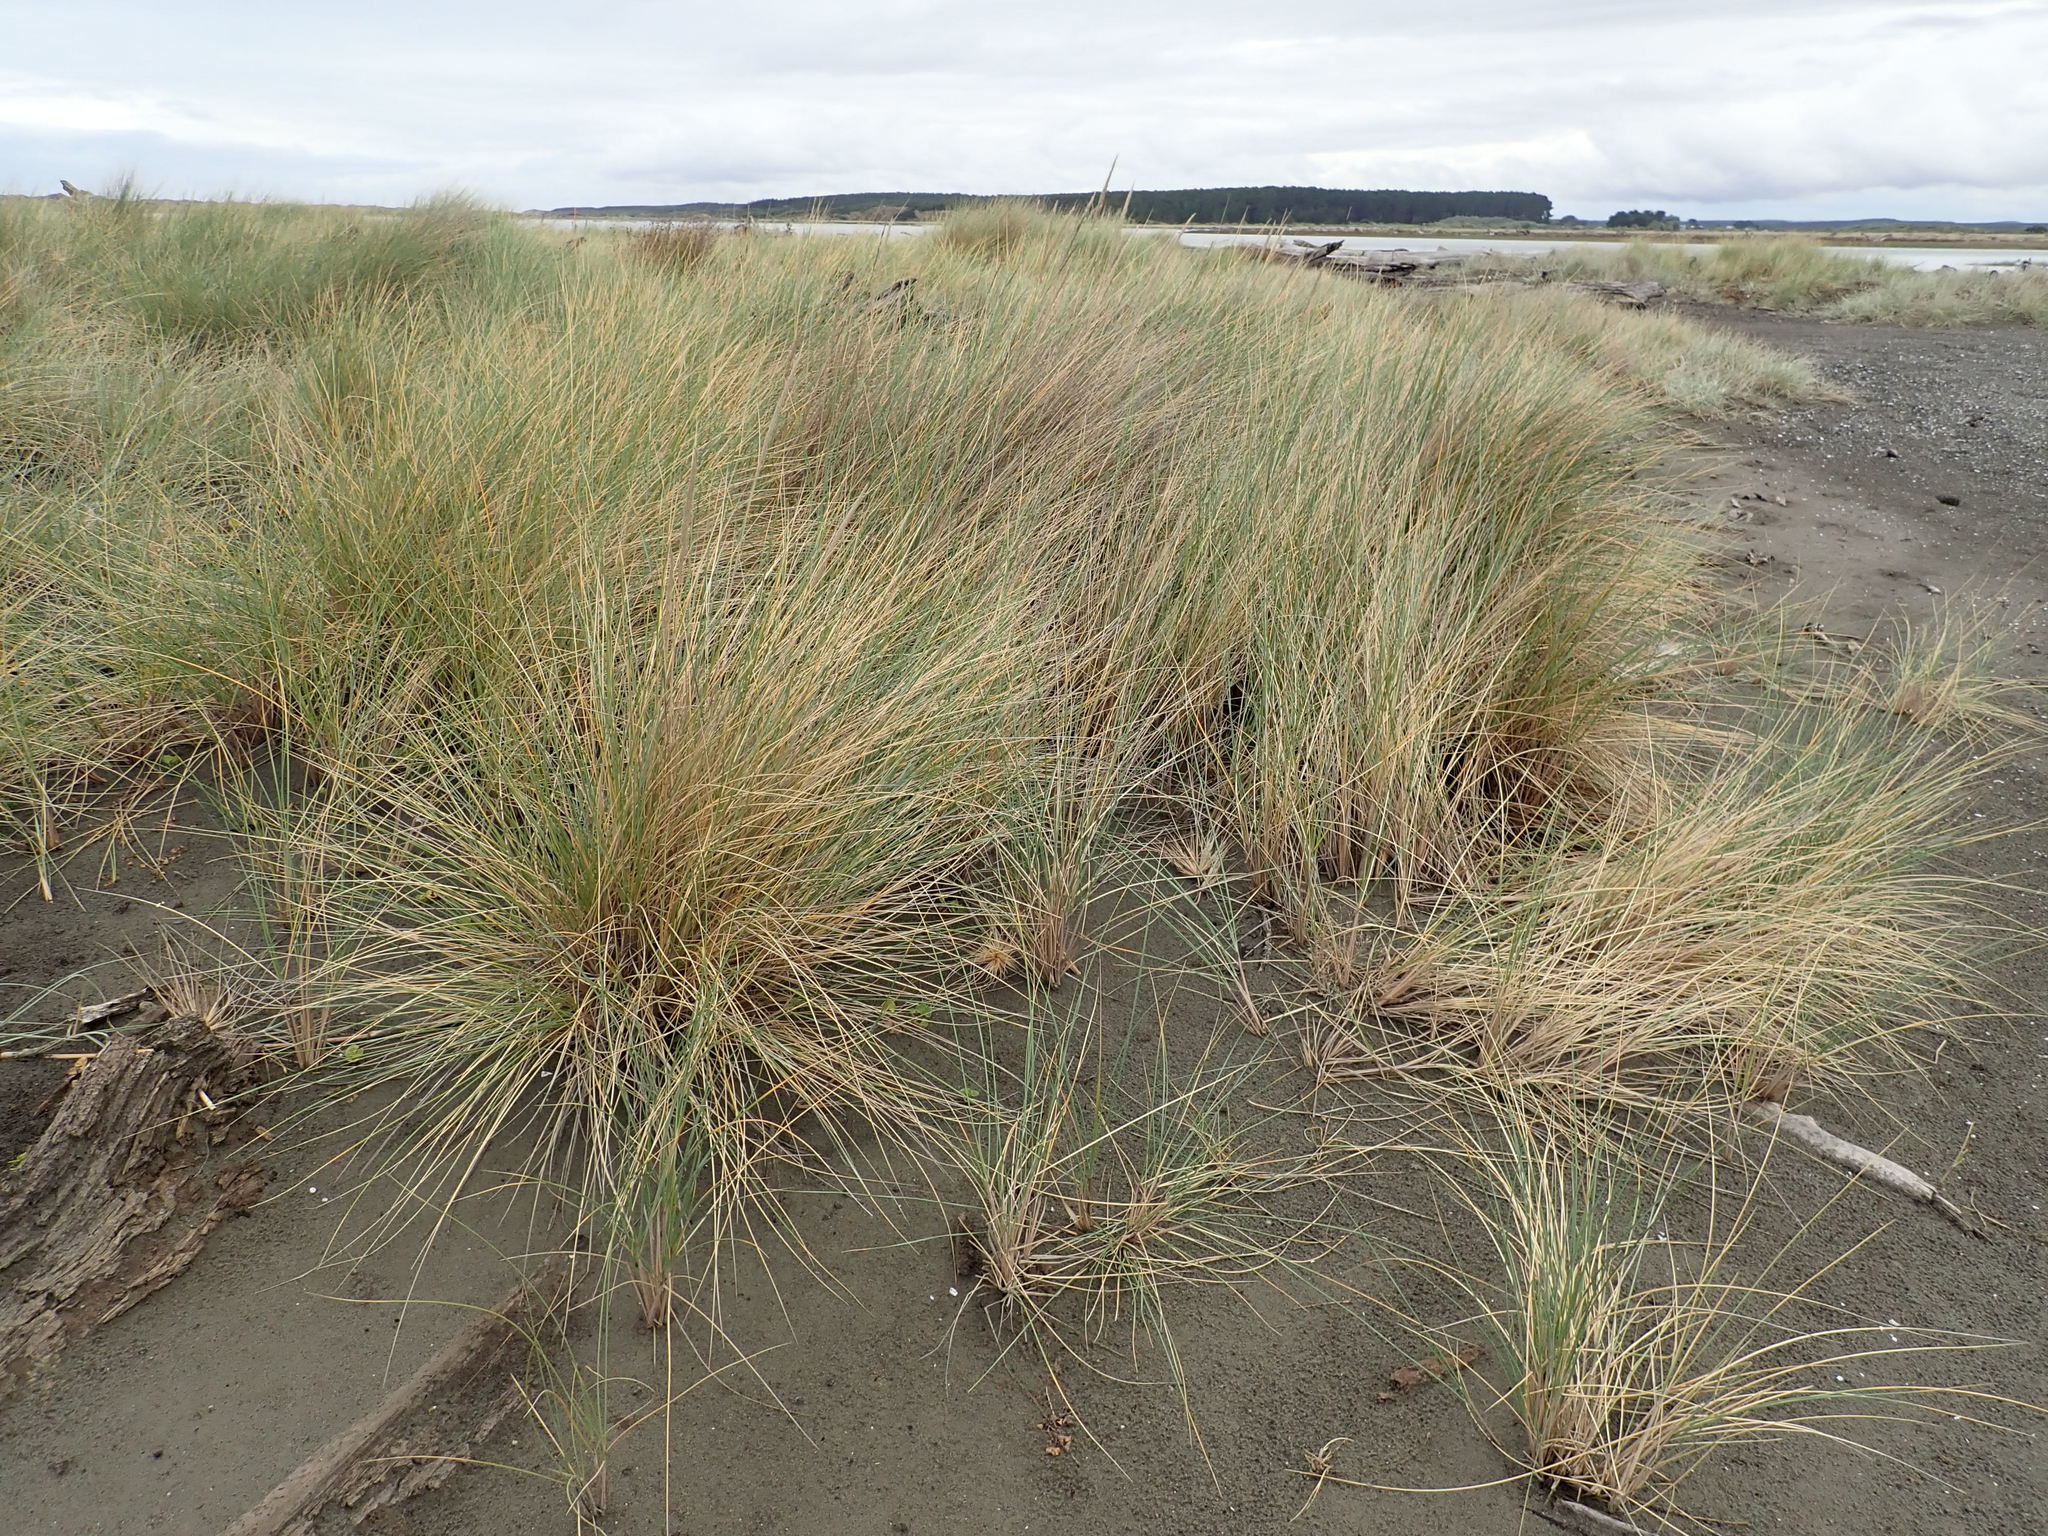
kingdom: Plantae
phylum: Tracheophyta
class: Liliopsida
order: Poales
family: Poaceae
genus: Calamagrostis
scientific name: Calamagrostis arenaria
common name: European beachgrass
